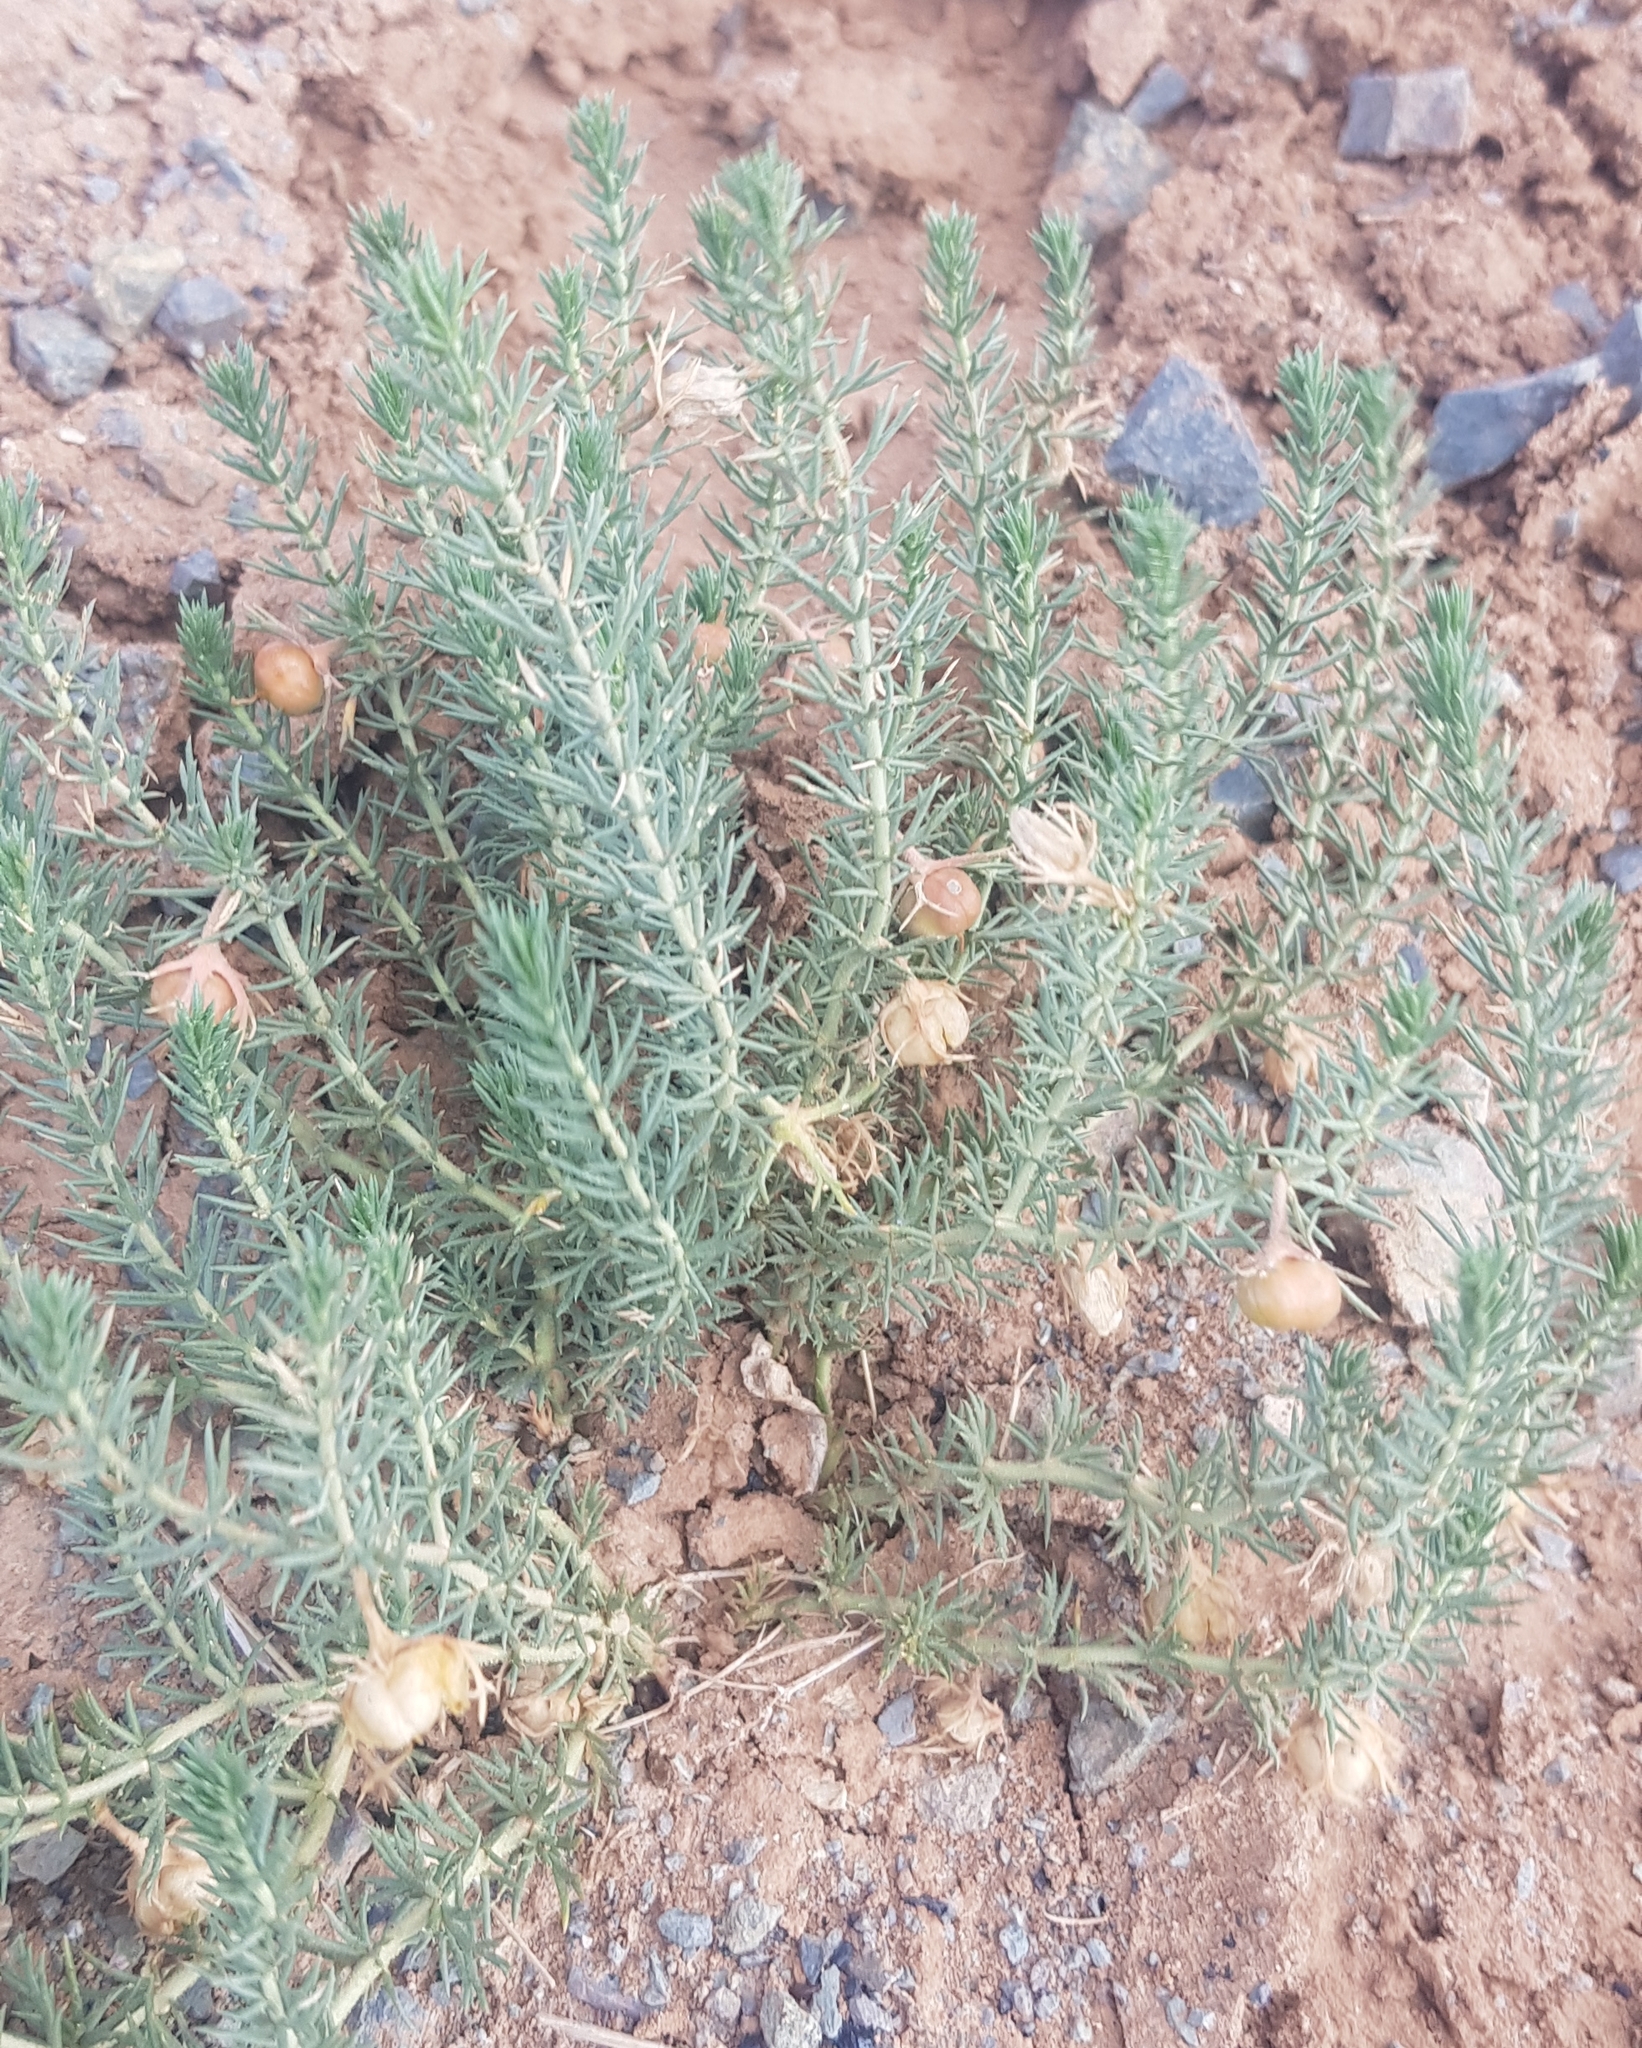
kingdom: Plantae
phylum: Tracheophyta
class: Magnoliopsida
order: Sapindales
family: Tetradiclidaceae
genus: Peganum
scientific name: Peganum harmala
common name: Harmal peganum
